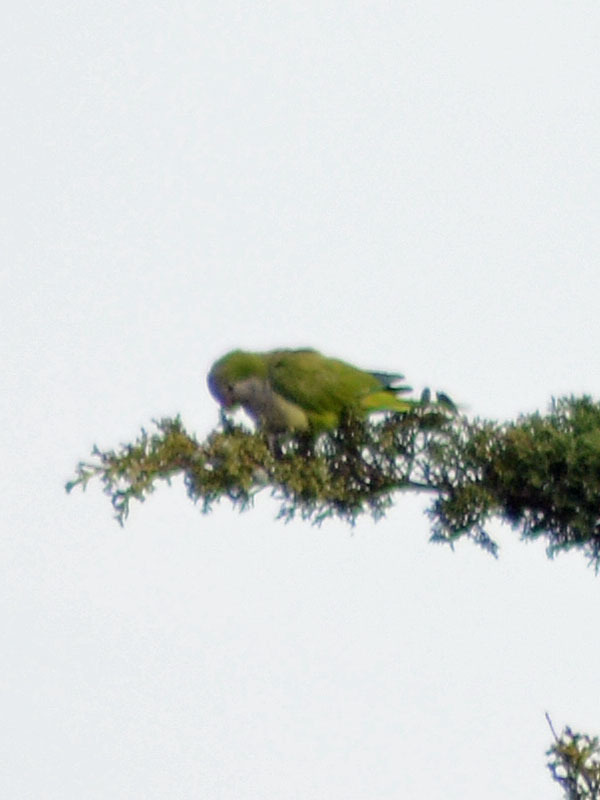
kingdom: Animalia
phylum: Chordata
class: Aves
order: Psittaciformes
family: Psittacidae
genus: Myiopsitta
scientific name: Myiopsitta monachus
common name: Monk parakeet
